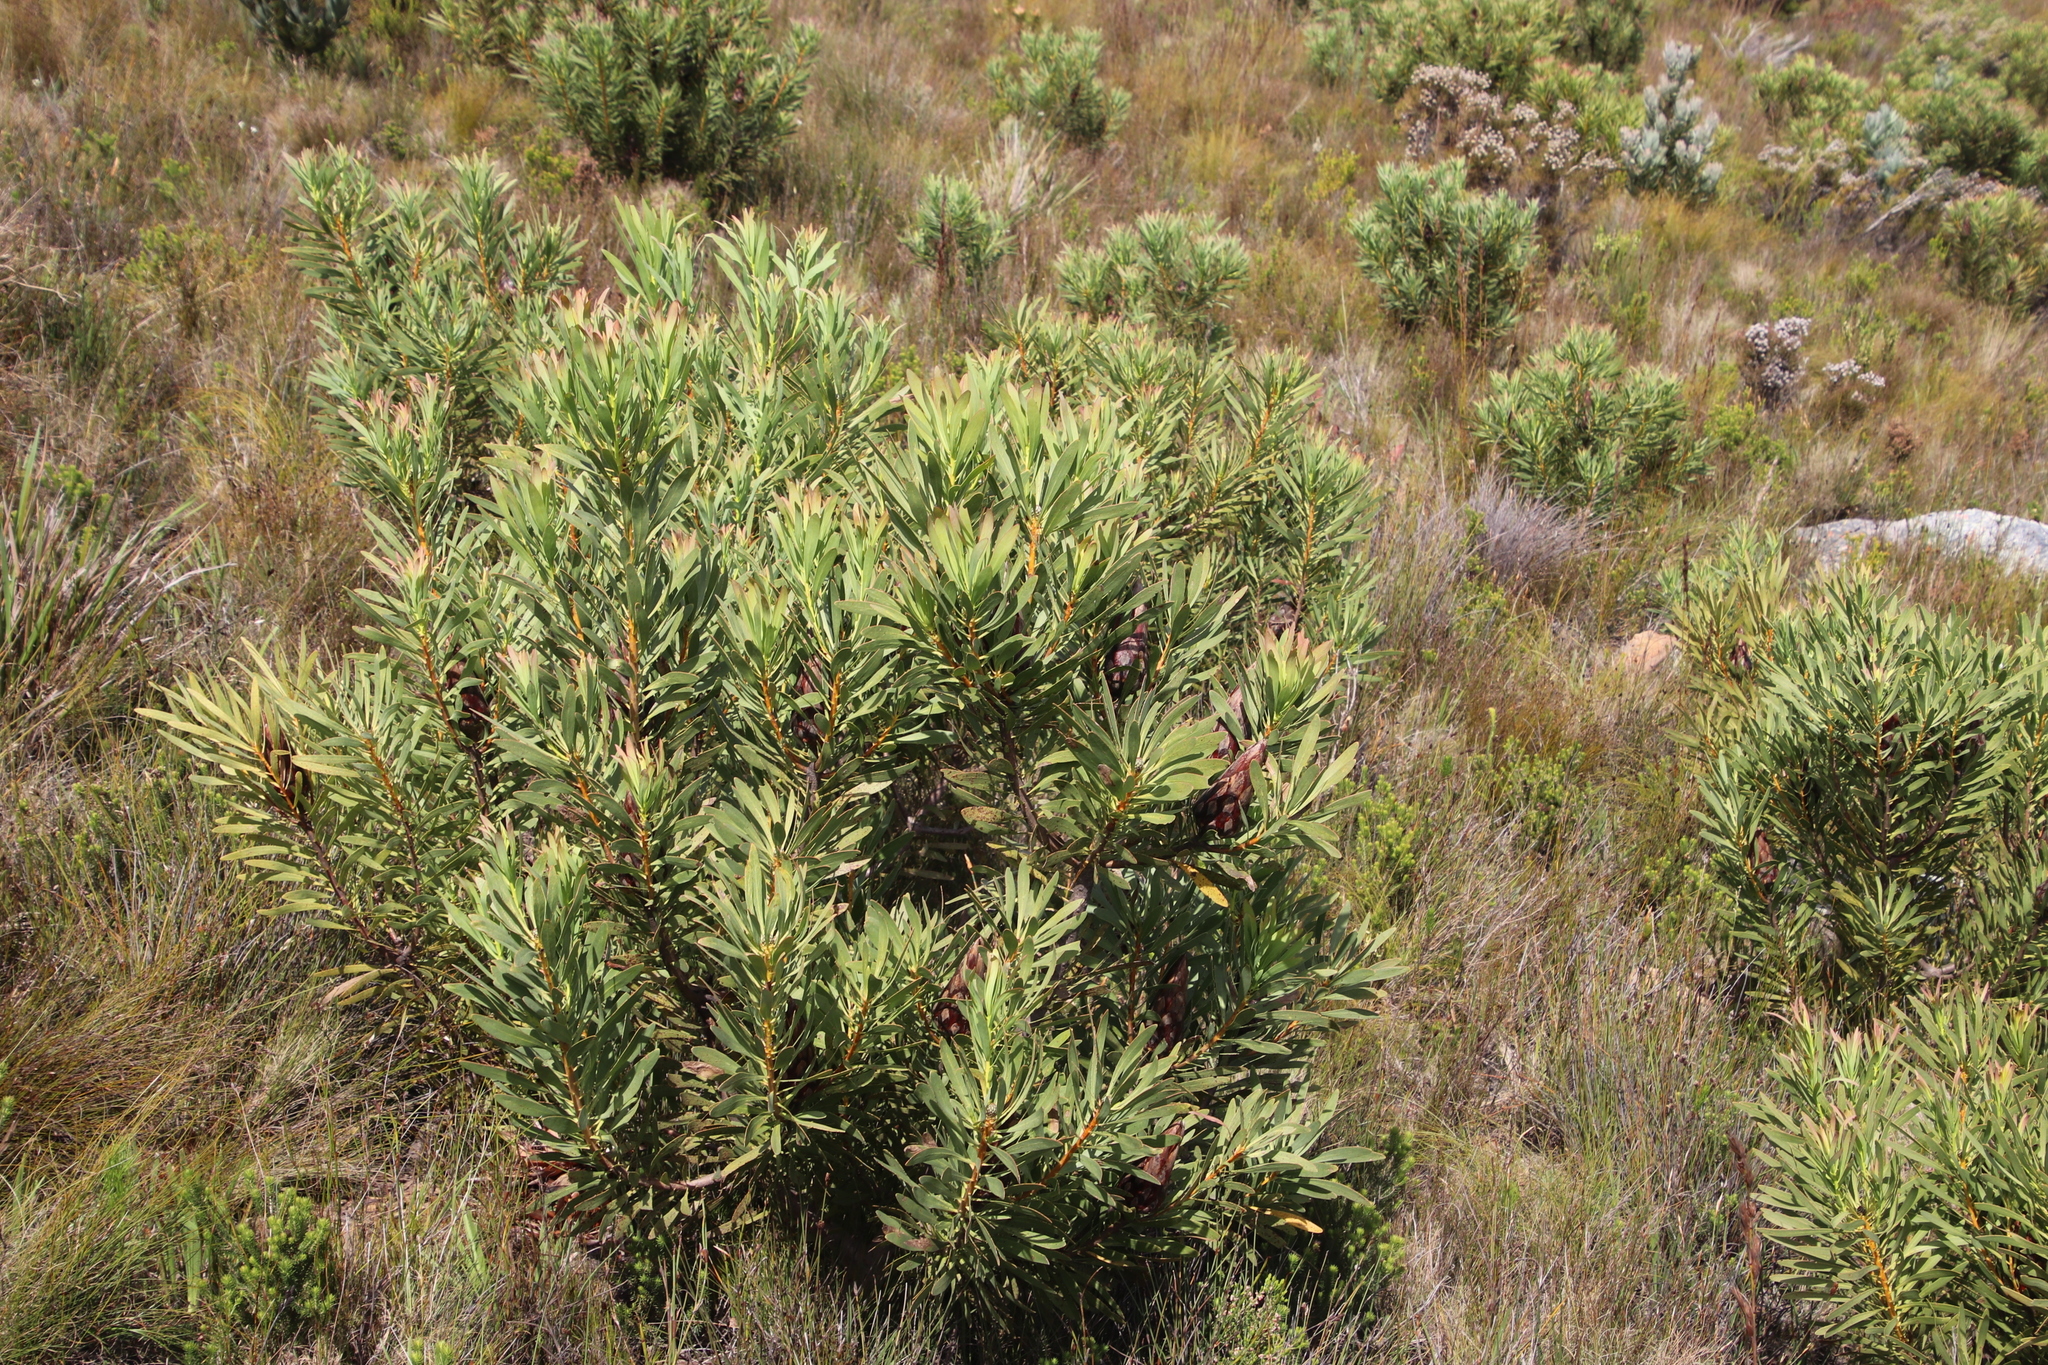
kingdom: Plantae
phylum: Tracheophyta
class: Magnoliopsida
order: Proteales
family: Proteaceae
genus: Protea
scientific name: Protea repens
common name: Sugarbush
